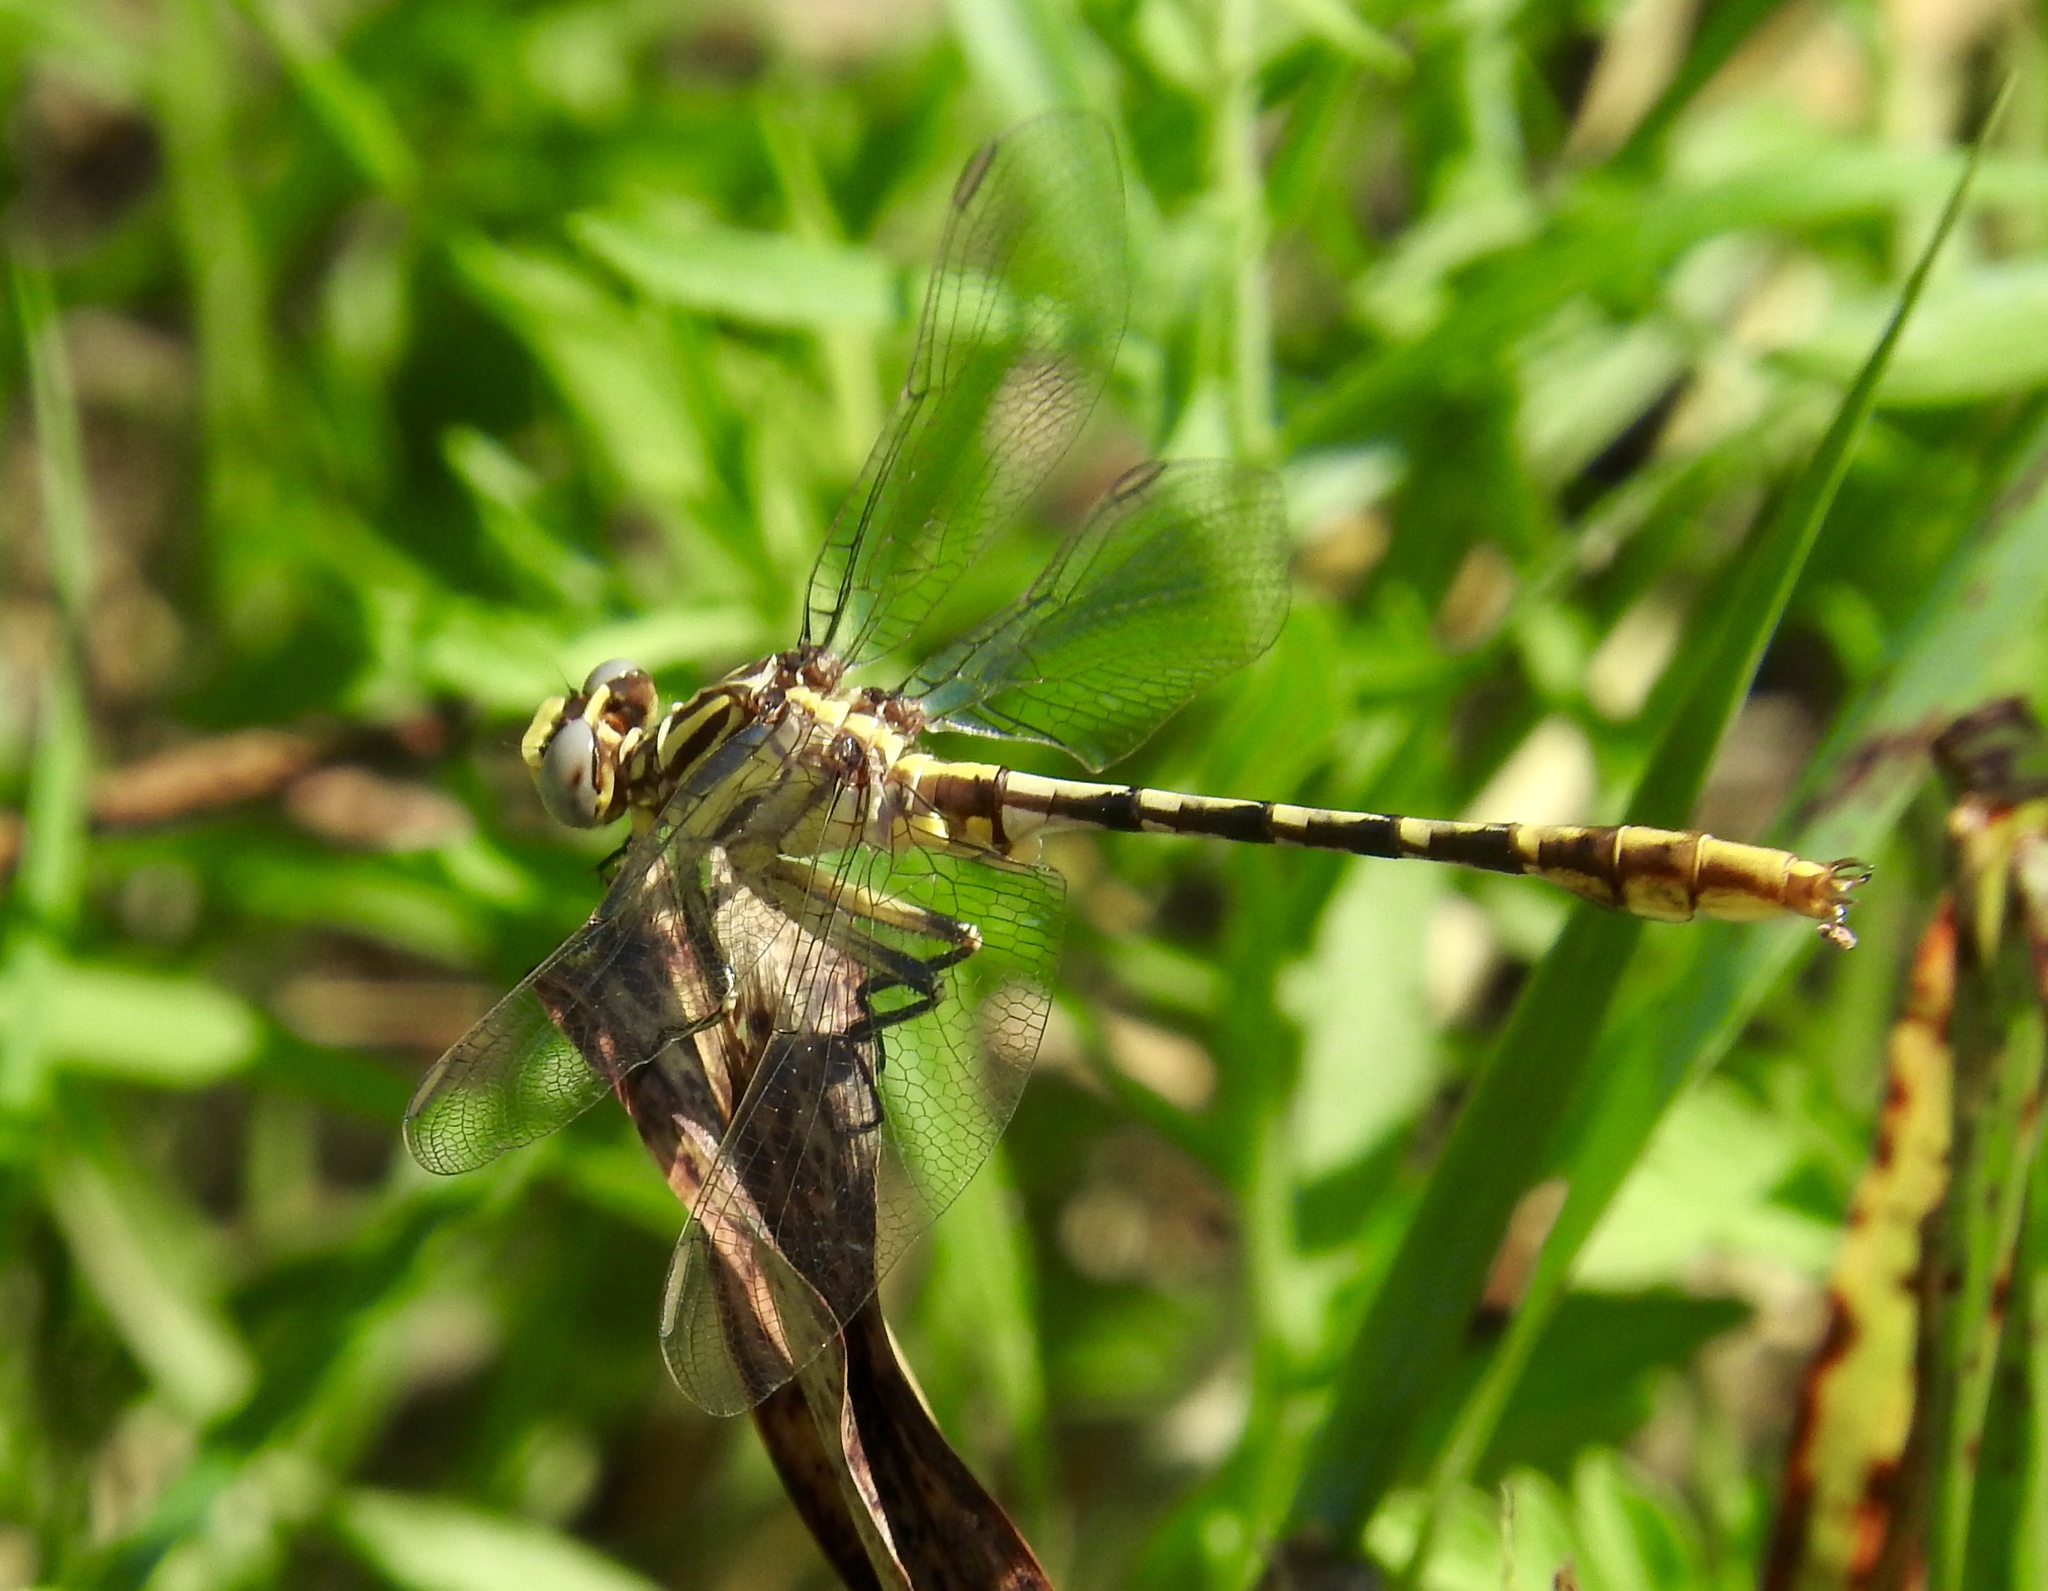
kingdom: Animalia
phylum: Arthropoda
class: Insecta
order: Odonata
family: Gomphidae
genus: Phanogomphus
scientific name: Phanogomphus militaris
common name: Sulphur-tipped clubtail
